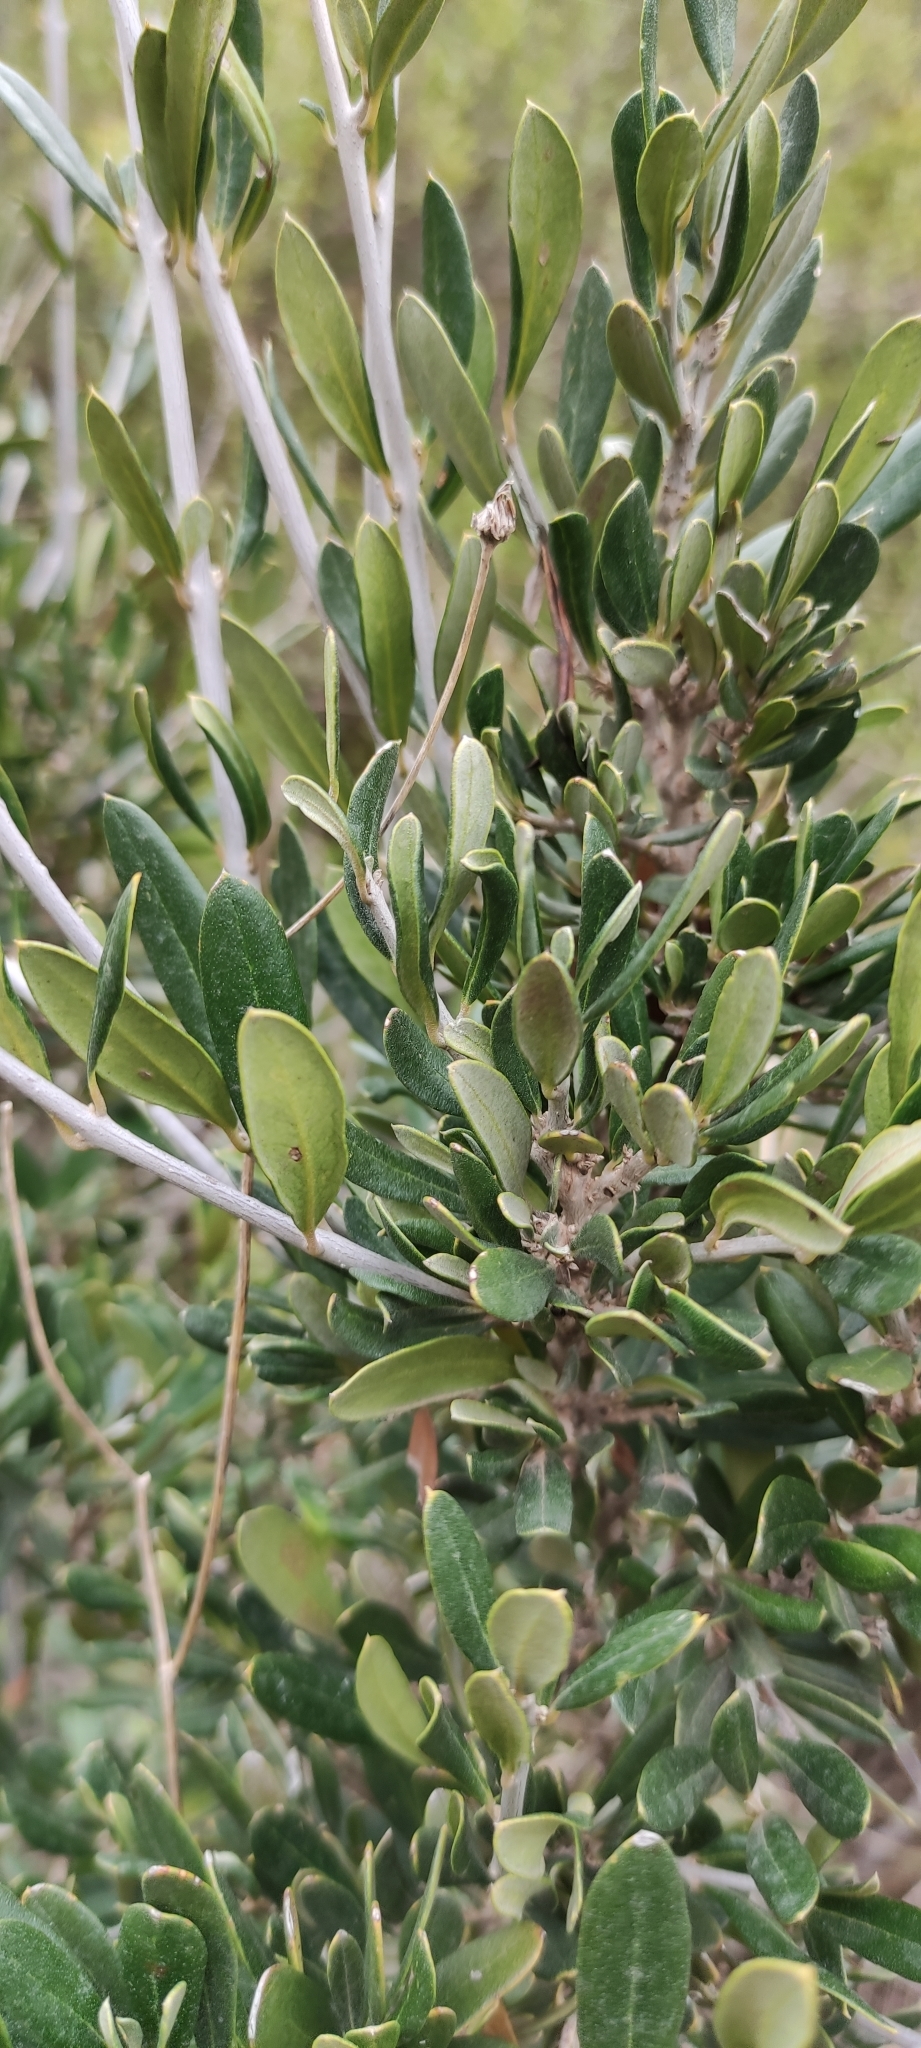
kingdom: Plantae
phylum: Tracheophyta
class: Magnoliopsida
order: Lamiales
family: Oleaceae
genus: Olea
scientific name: Olea europaea
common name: Olive
